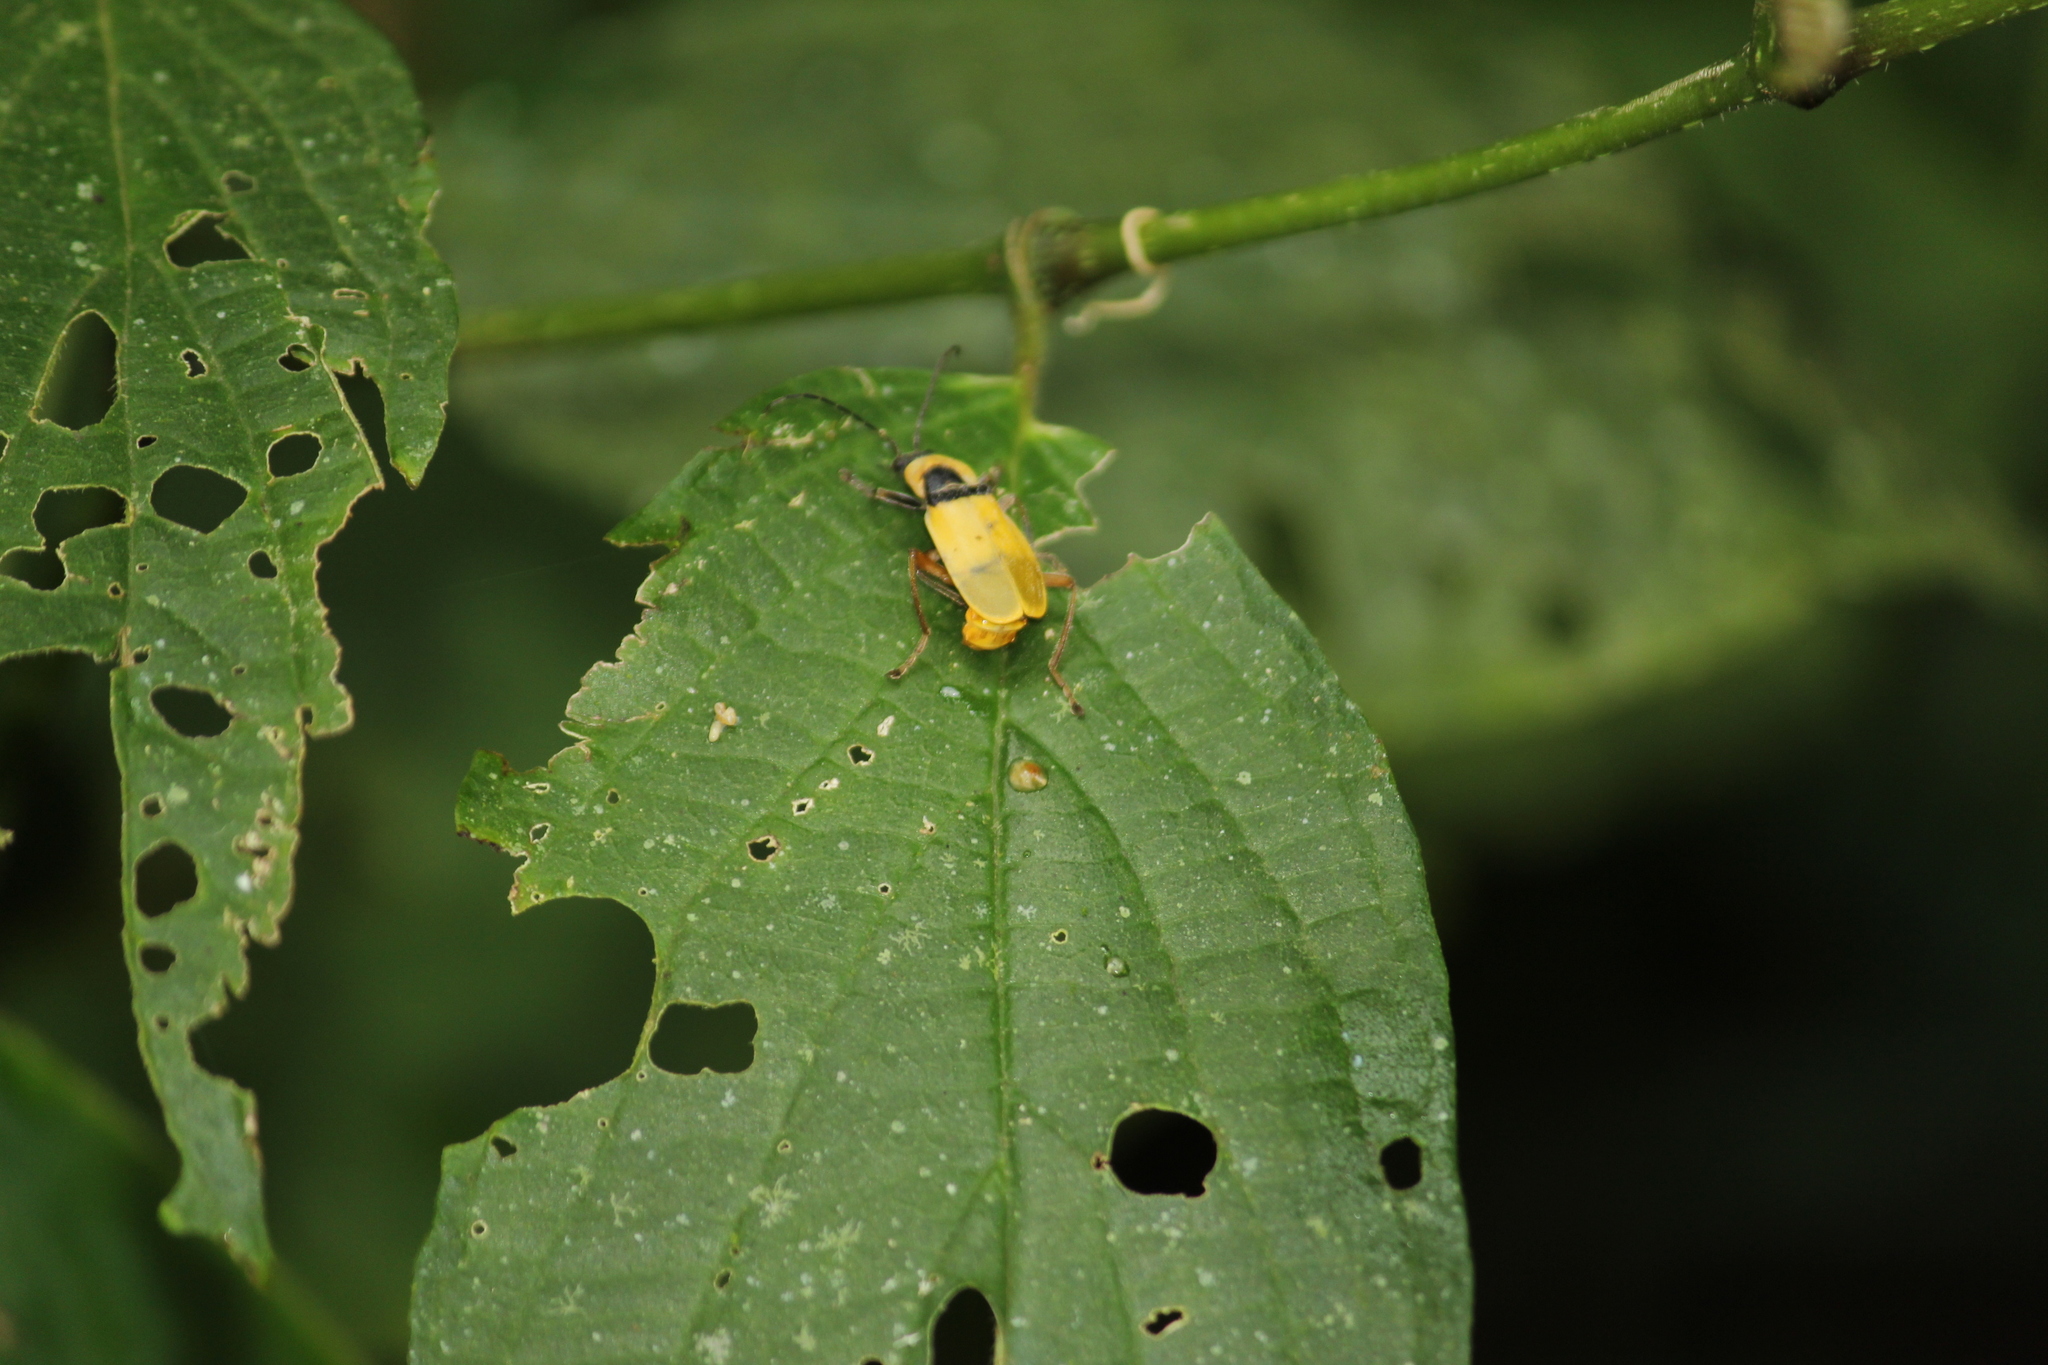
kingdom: Animalia
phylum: Arthropoda
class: Insecta
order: Coleoptera
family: Cantharidae
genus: Chauliognathus
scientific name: Chauliognathus
